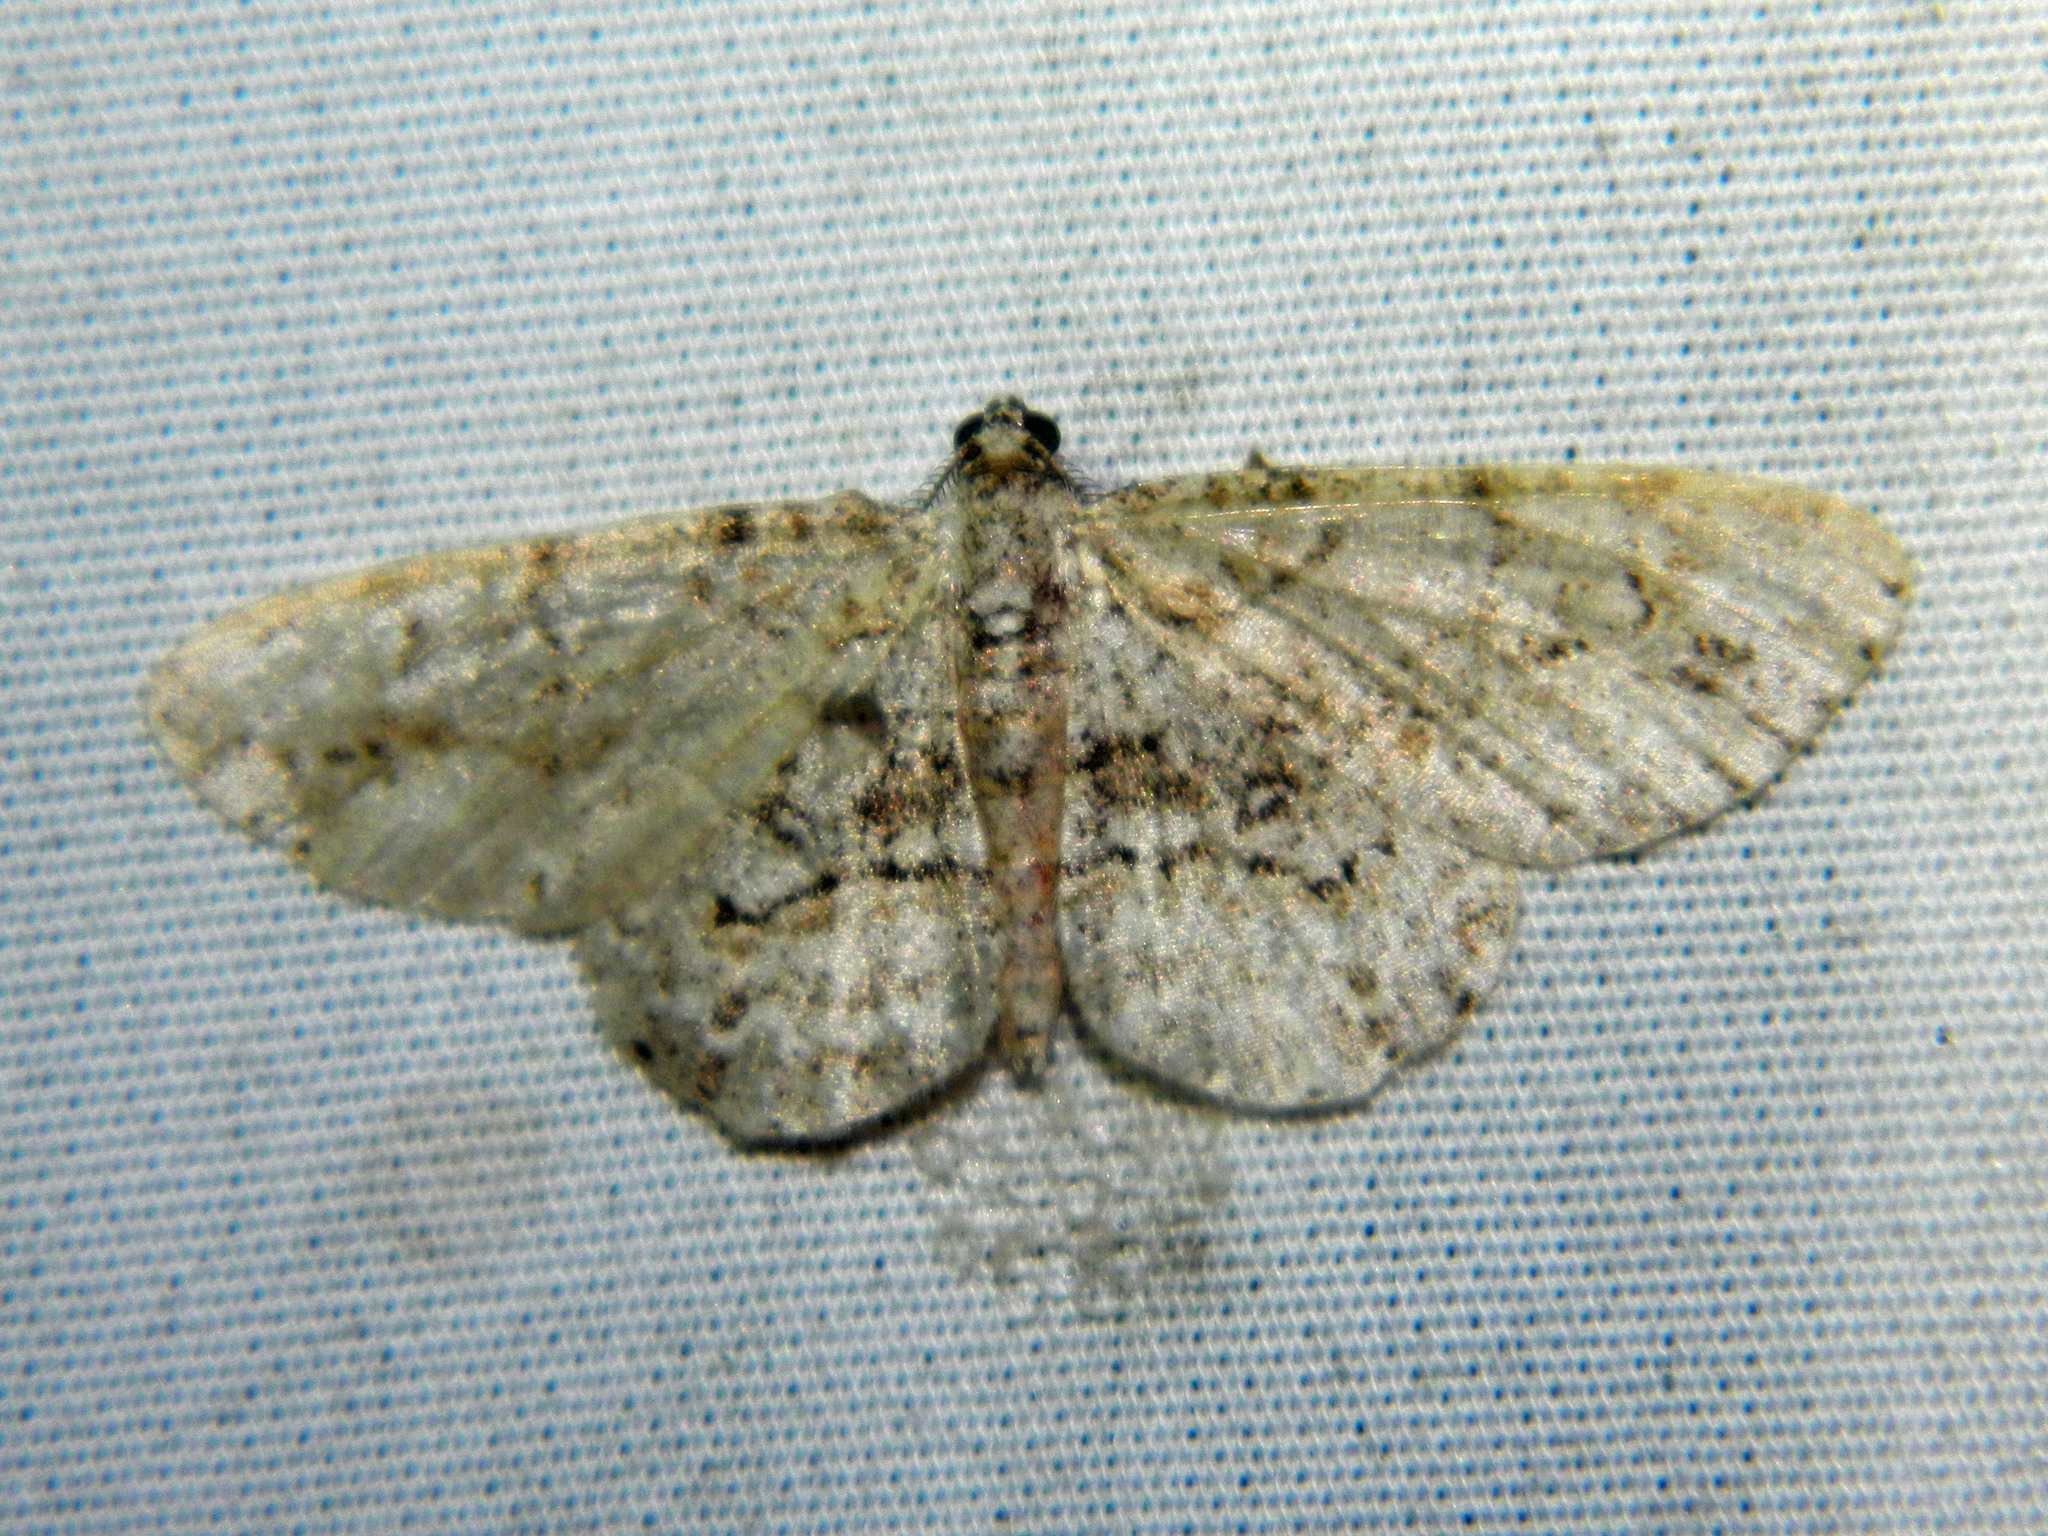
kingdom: Animalia
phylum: Arthropoda
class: Insecta
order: Lepidoptera
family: Geometridae
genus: Iridopsis
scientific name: Iridopsis ephyraria
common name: Pale-winged gray
